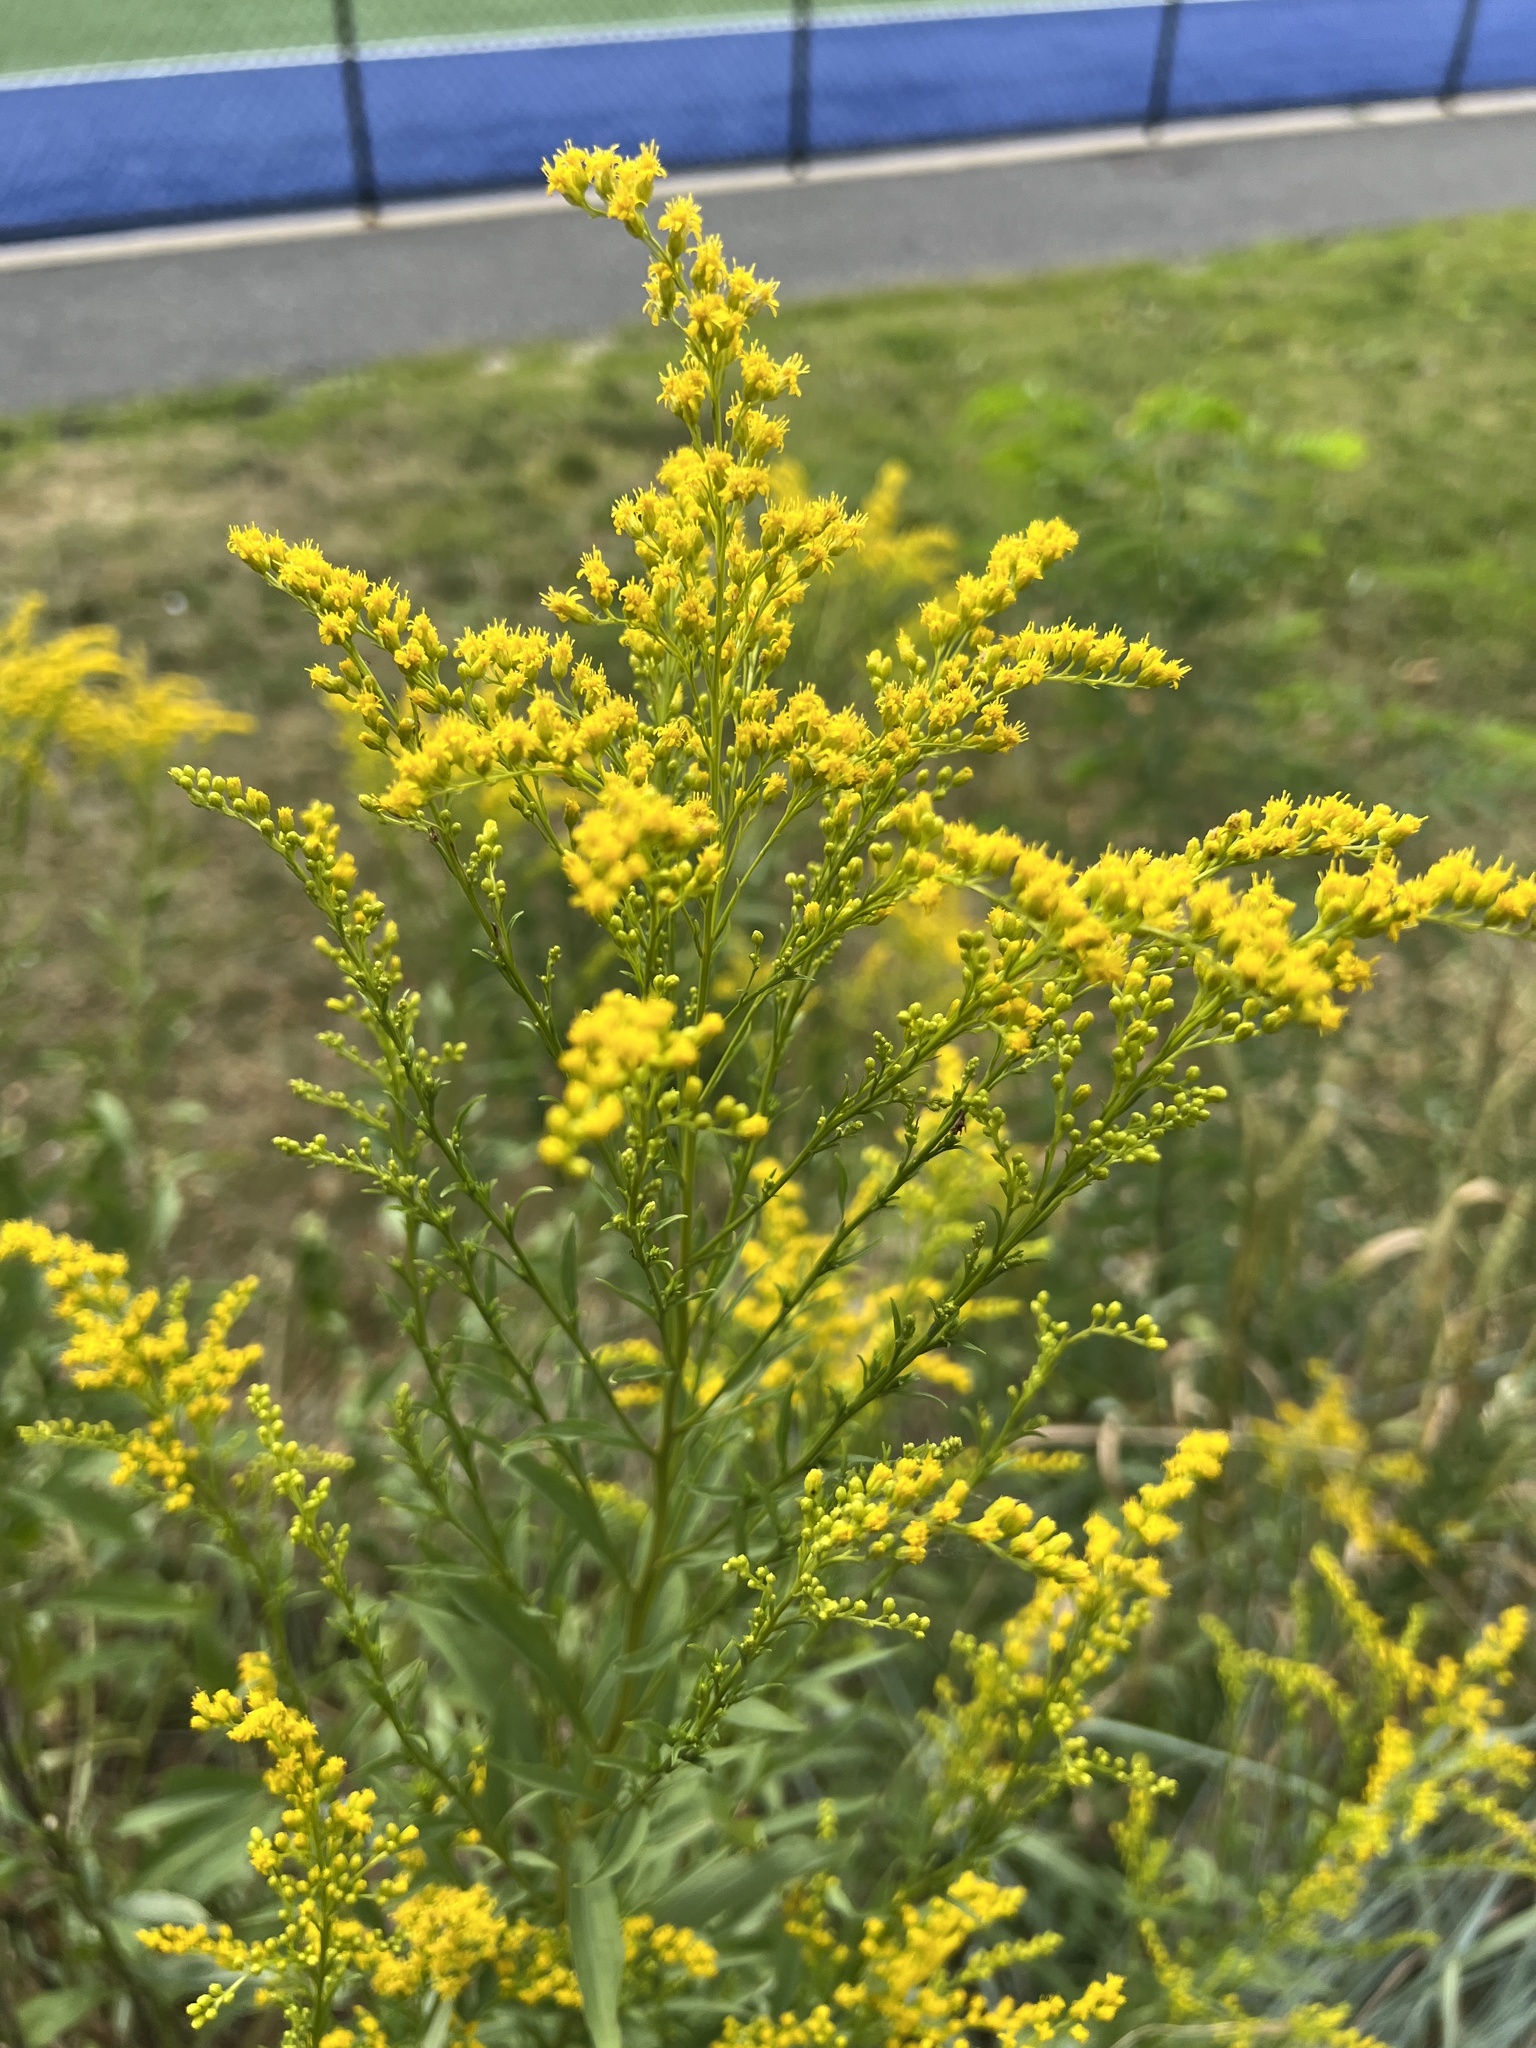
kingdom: Plantae
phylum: Tracheophyta
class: Magnoliopsida
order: Asterales
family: Asteraceae
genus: Solidago
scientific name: Solidago juncea
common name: Early goldenrod
